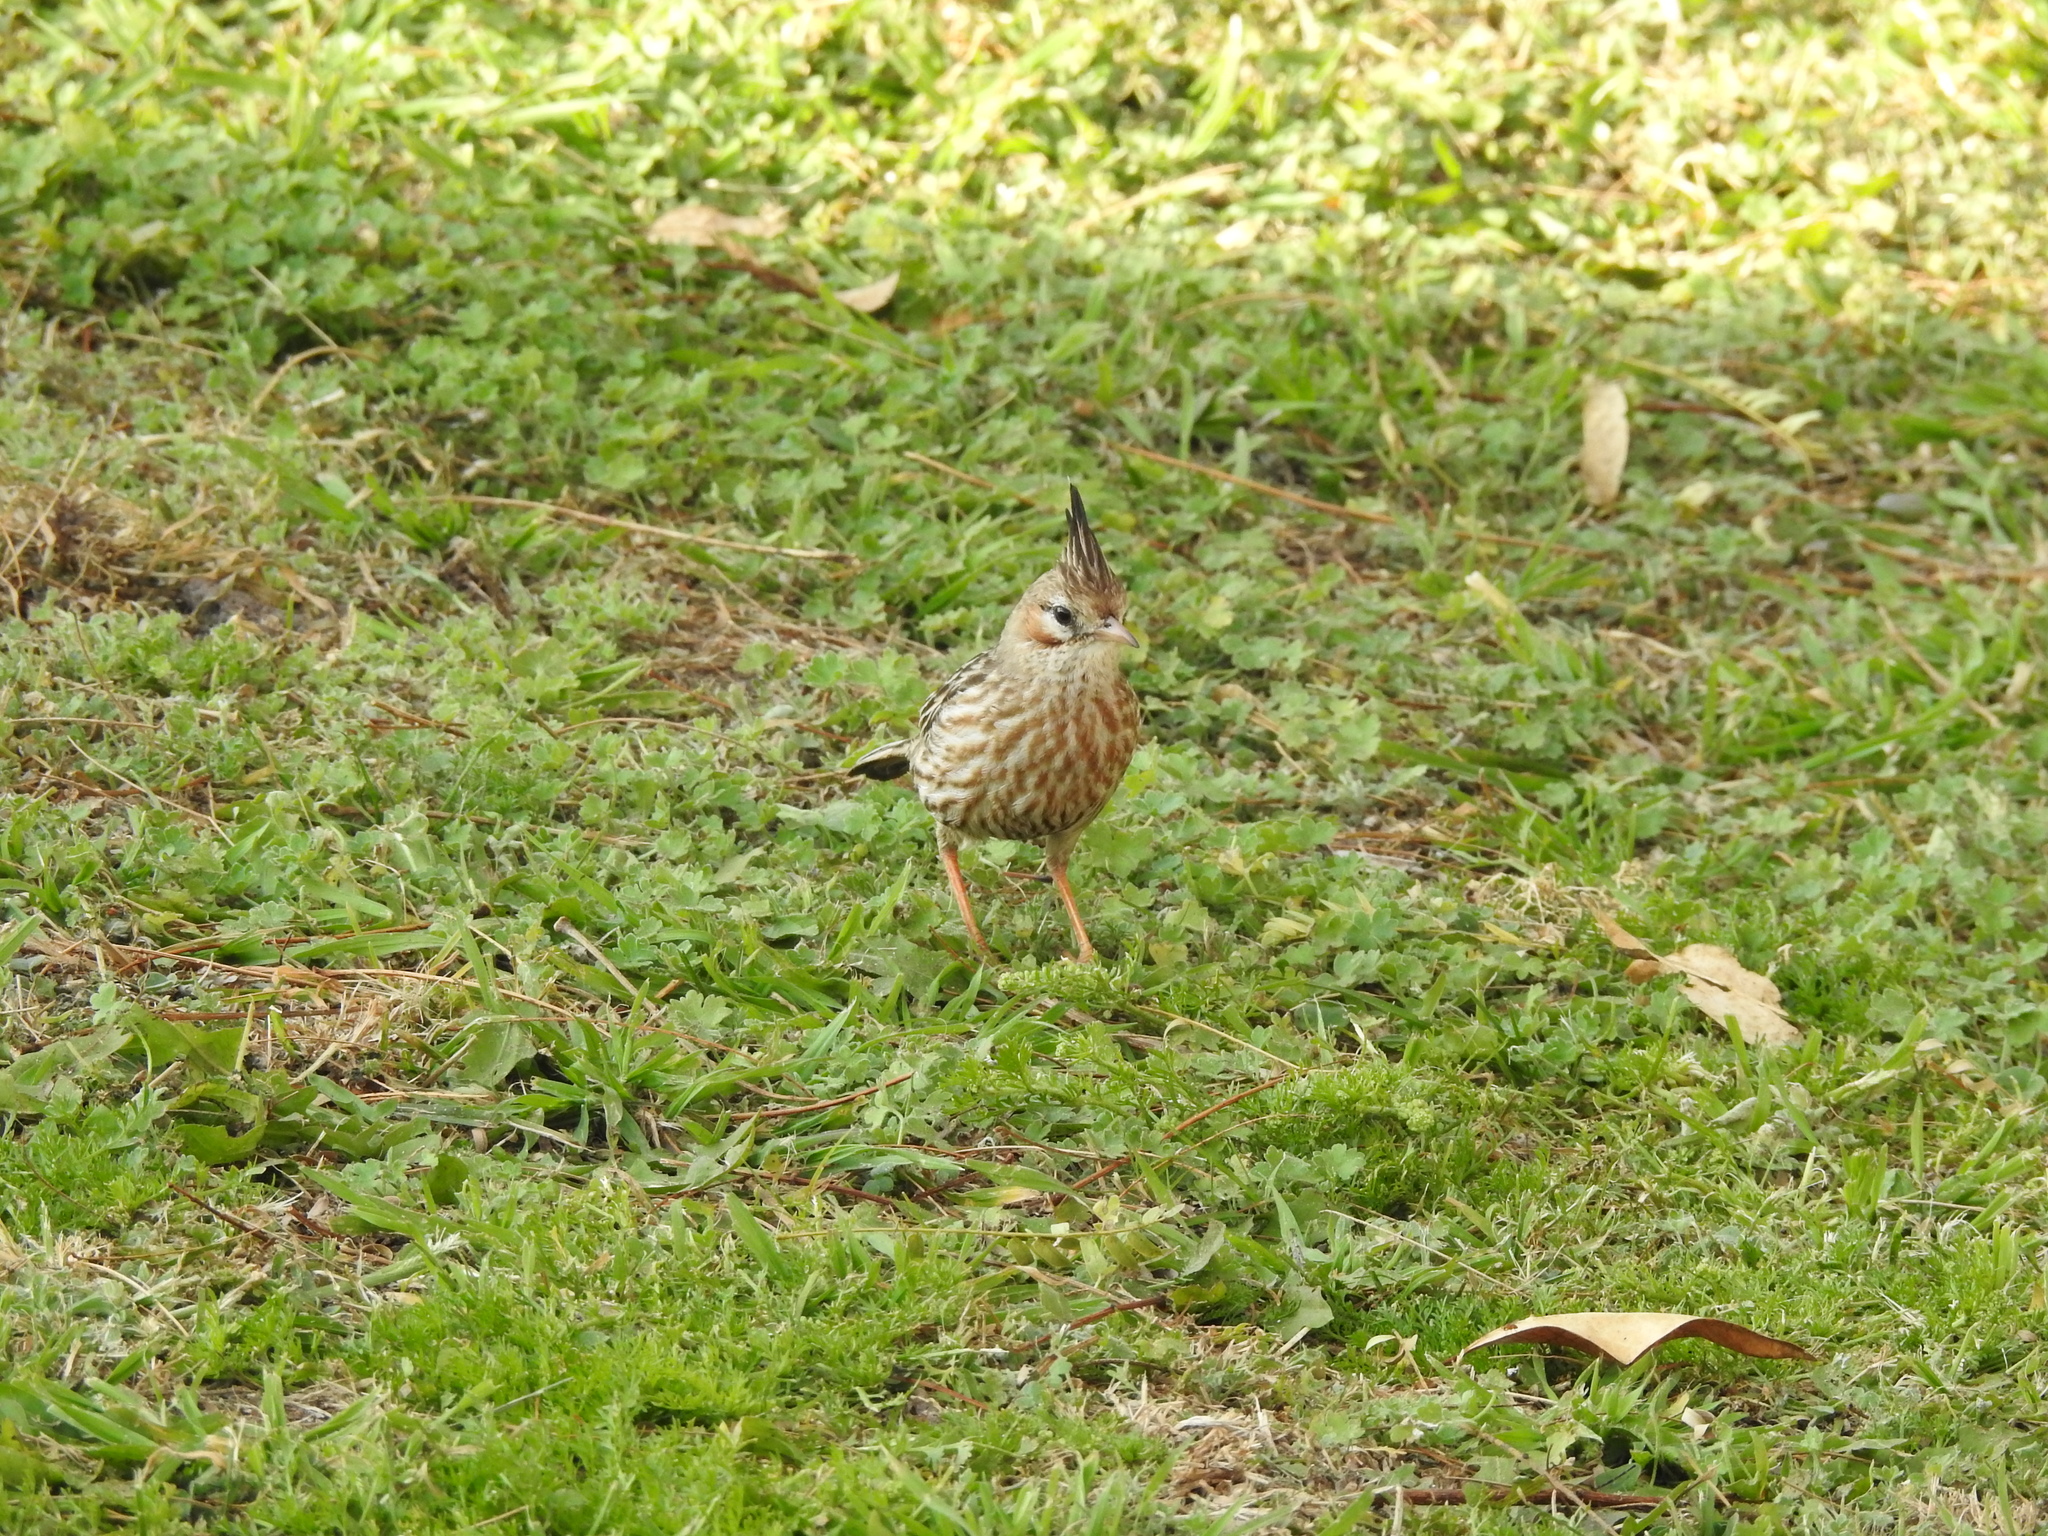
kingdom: Animalia
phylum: Chordata
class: Aves
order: Passeriformes
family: Furnariidae
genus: Coryphistera
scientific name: Coryphistera alaudina
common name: Lark-like brushrunner
